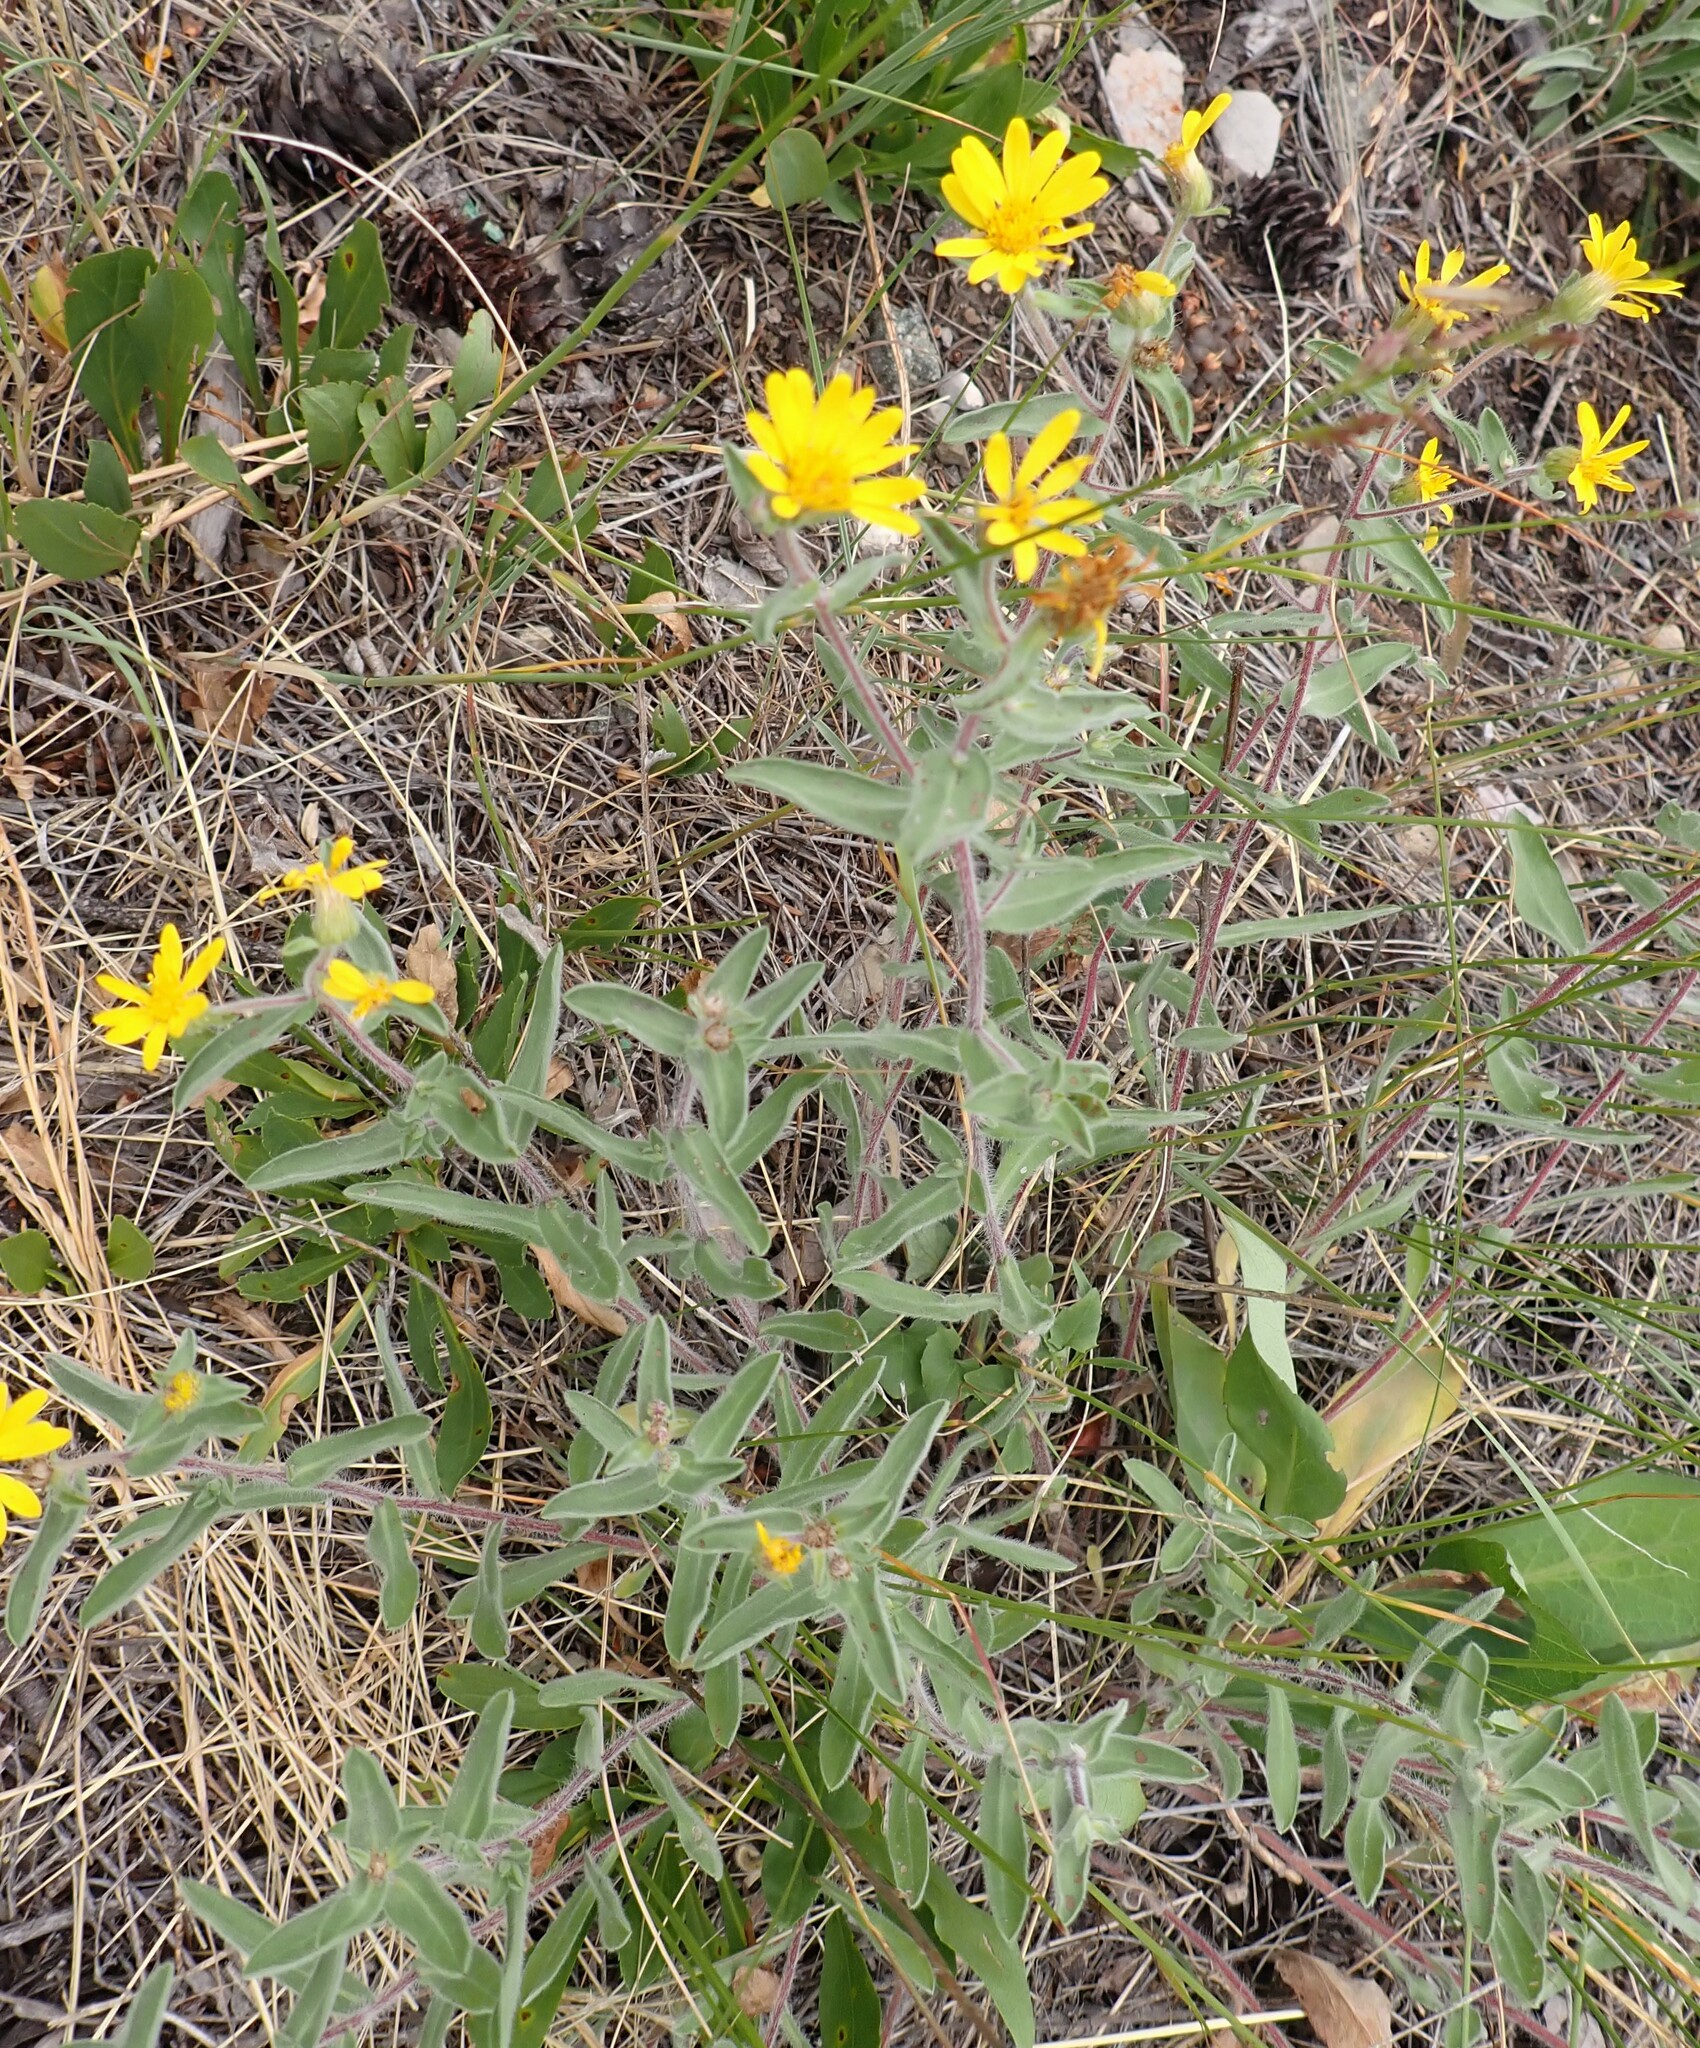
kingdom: Plantae
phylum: Tracheophyta
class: Magnoliopsida
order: Asterales
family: Asteraceae
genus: Heterotheca
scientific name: Heterotheca villosa
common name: Hairy false goldenaster
